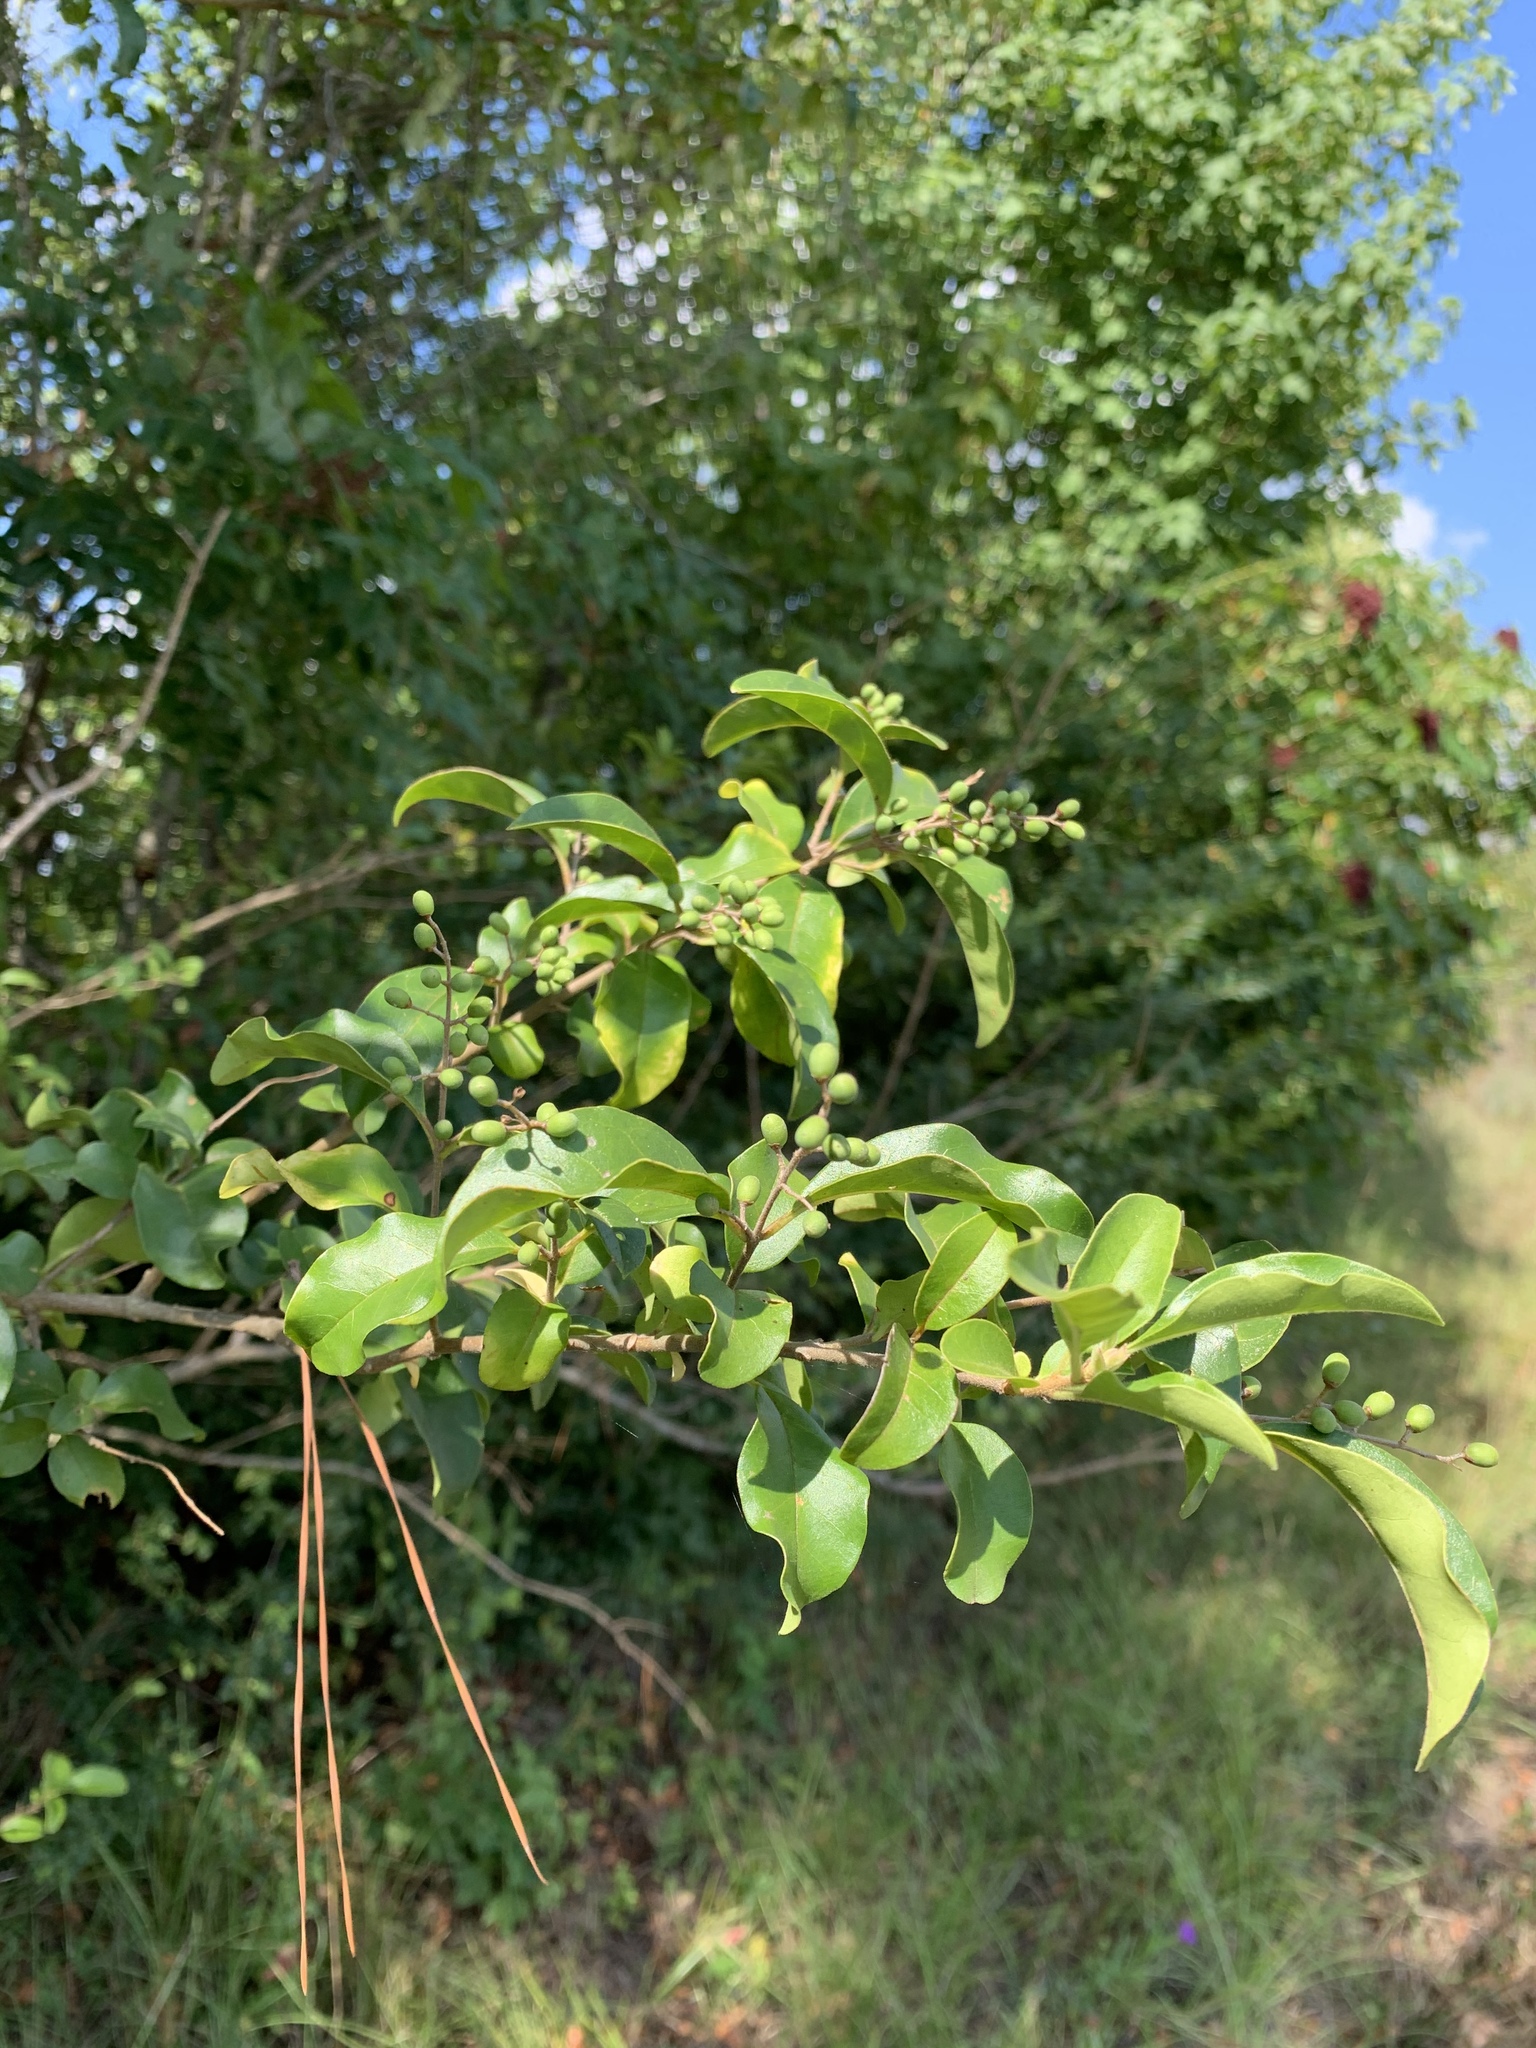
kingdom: Plantae
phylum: Tracheophyta
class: Magnoliopsida
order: Ericales
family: Sapotaceae
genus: Sideroxylon
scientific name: Sideroxylon lanuginosum
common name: Chittamwood
